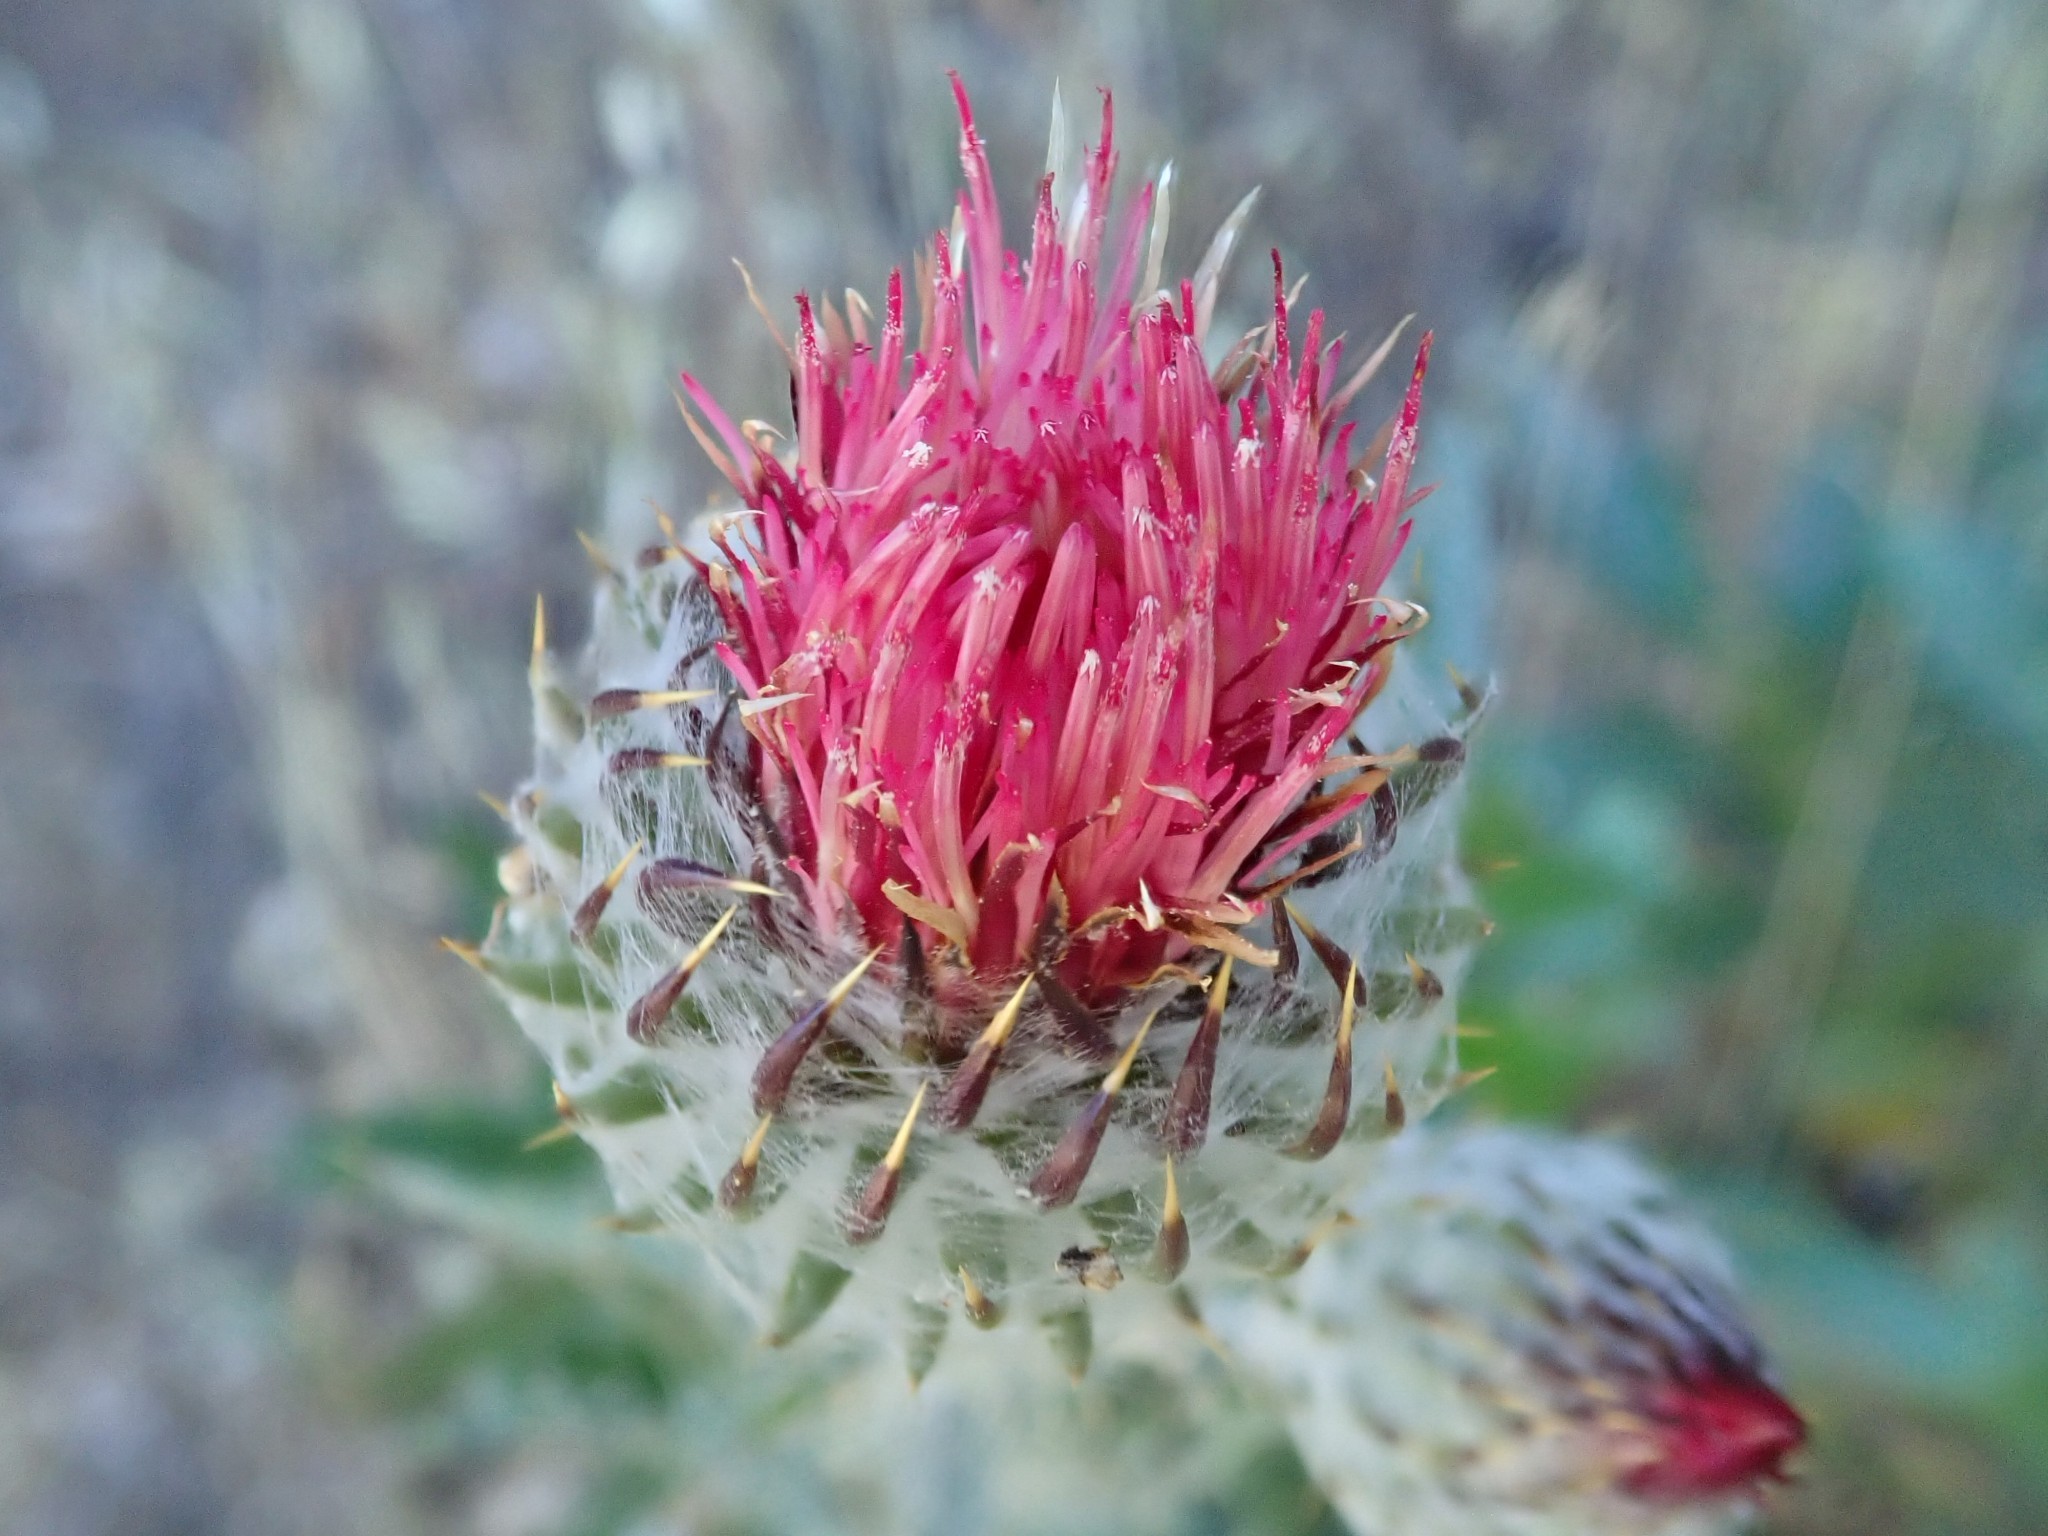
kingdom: Plantae
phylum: Tracheophyta
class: Magnoliopsida
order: Asterales
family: Asteraceae
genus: Cirsium
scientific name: Cirsium occidentale
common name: Western thistle
